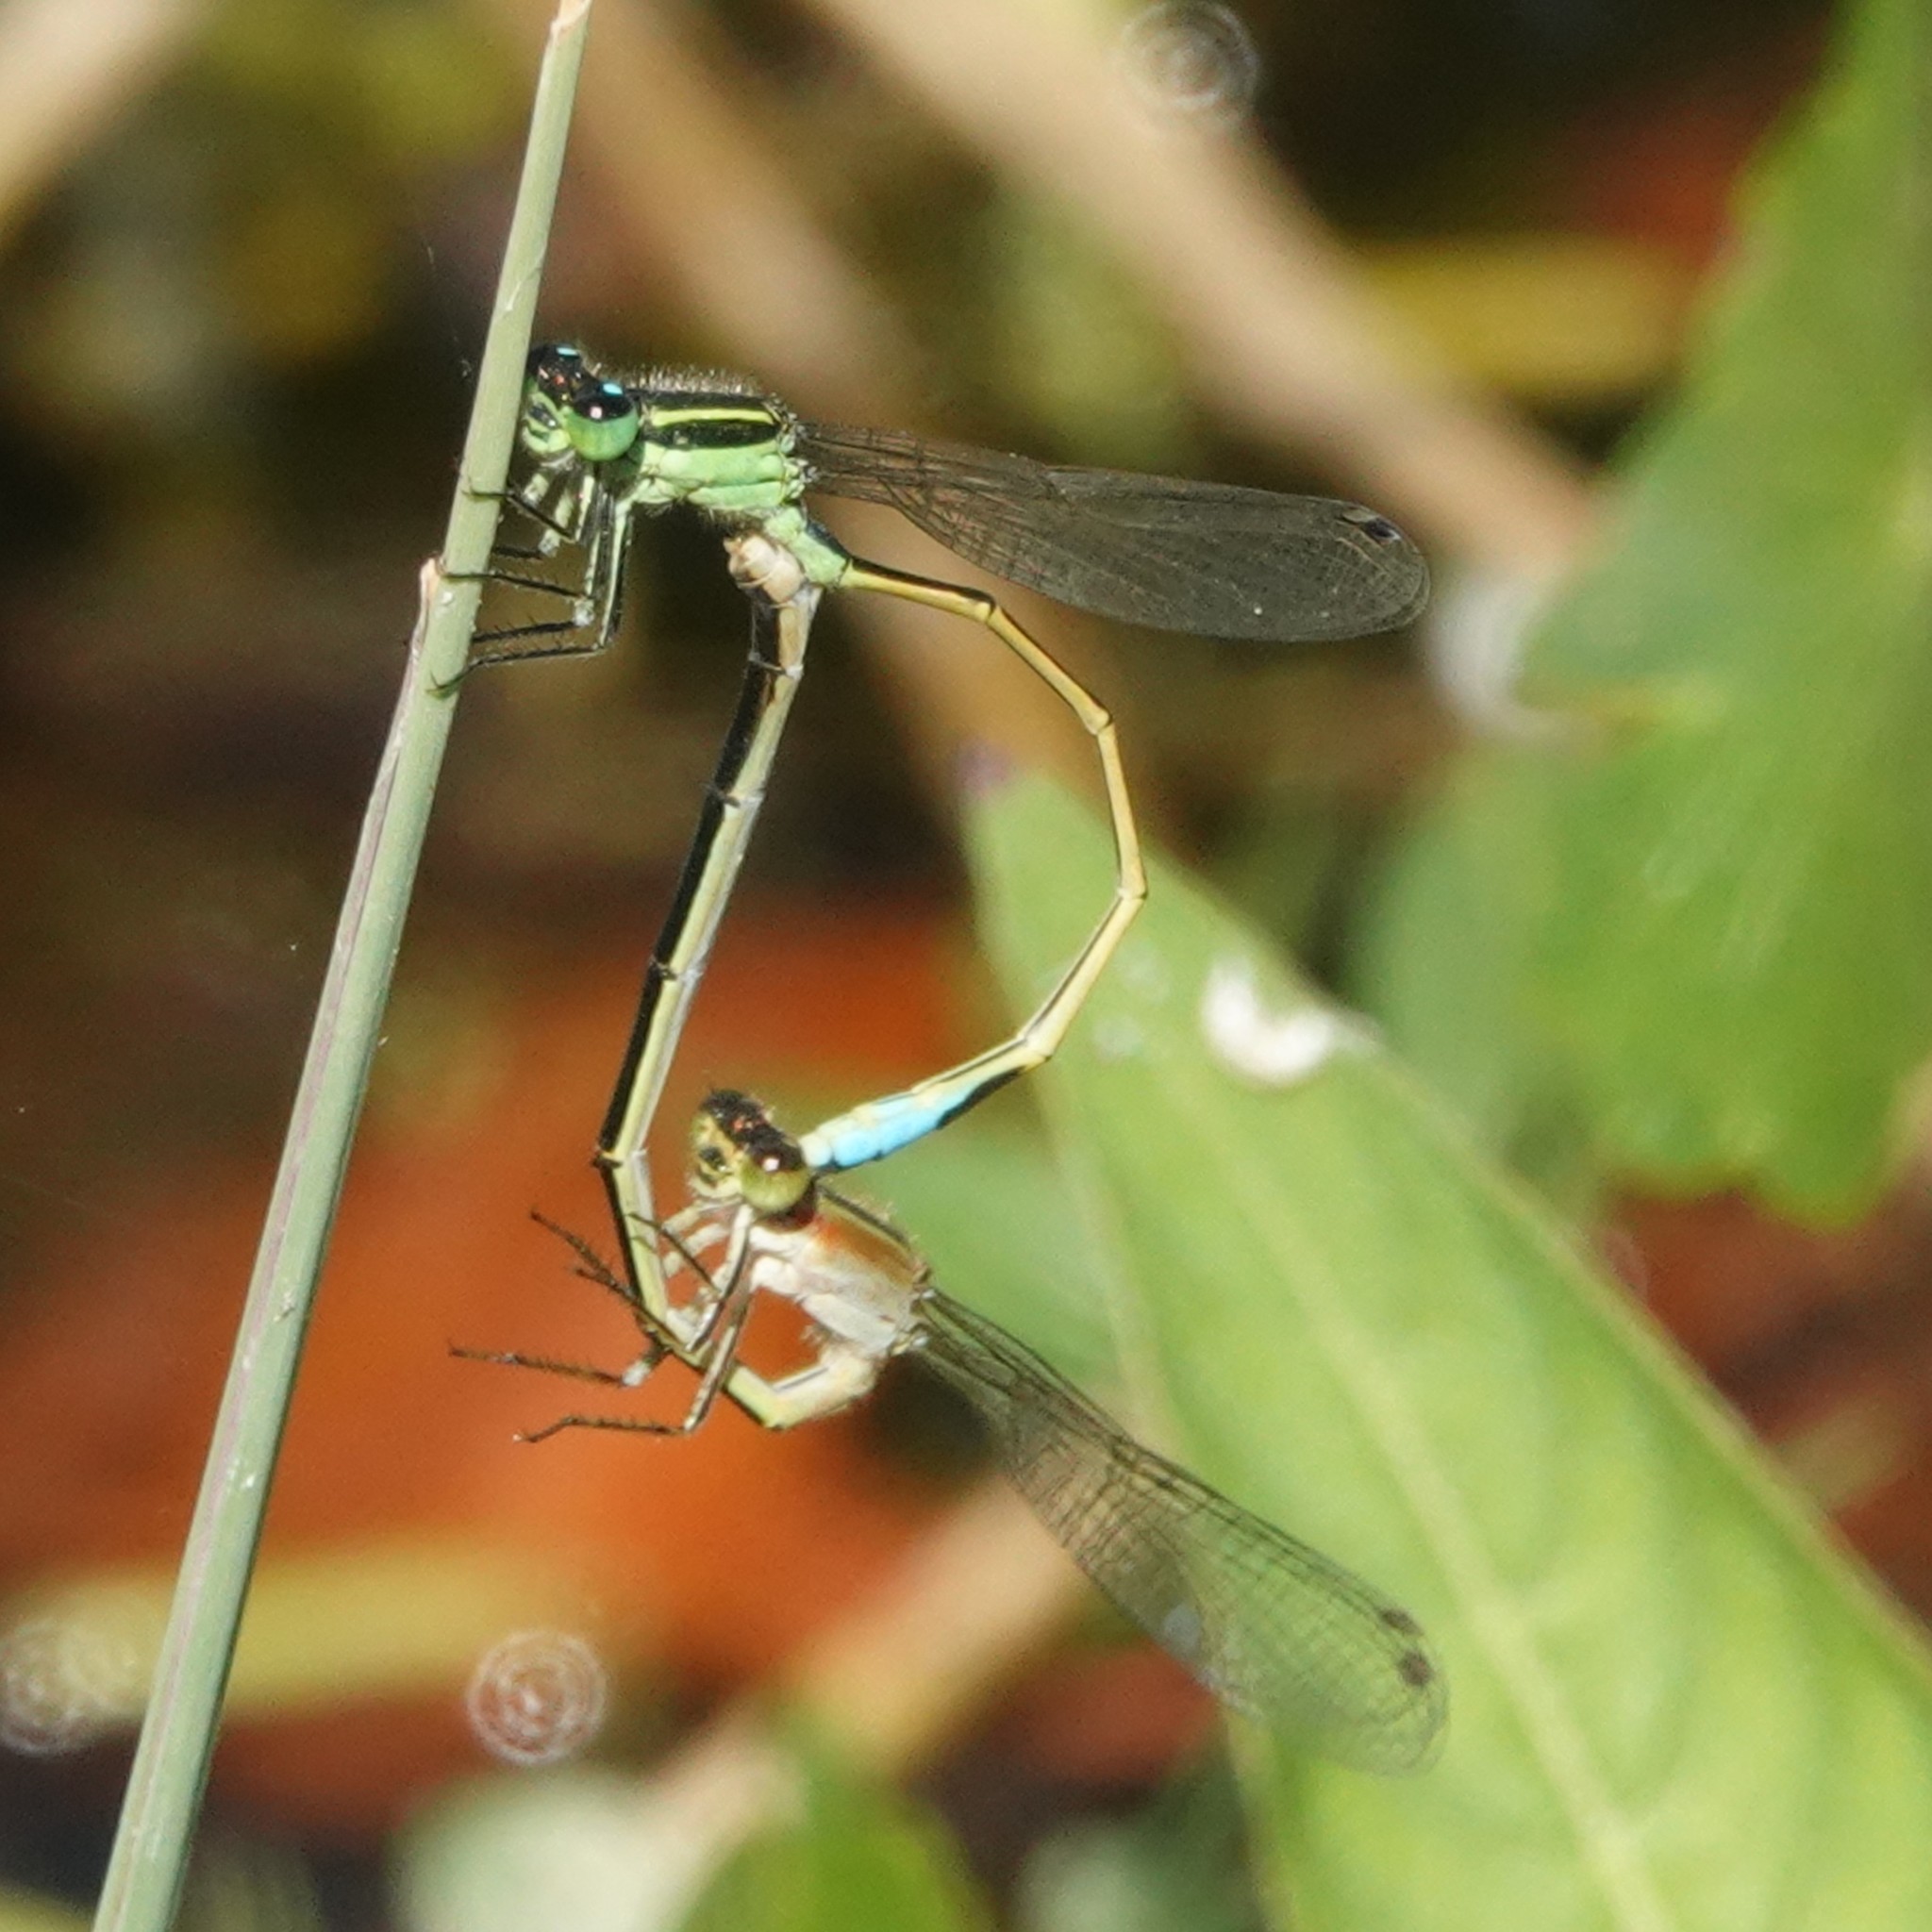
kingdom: Animalia
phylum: Arthropoda
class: Insecta
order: Odonata
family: Coenagrionidae
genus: Ischnura
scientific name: Ischnura ramburii
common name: Rambur's forktail
